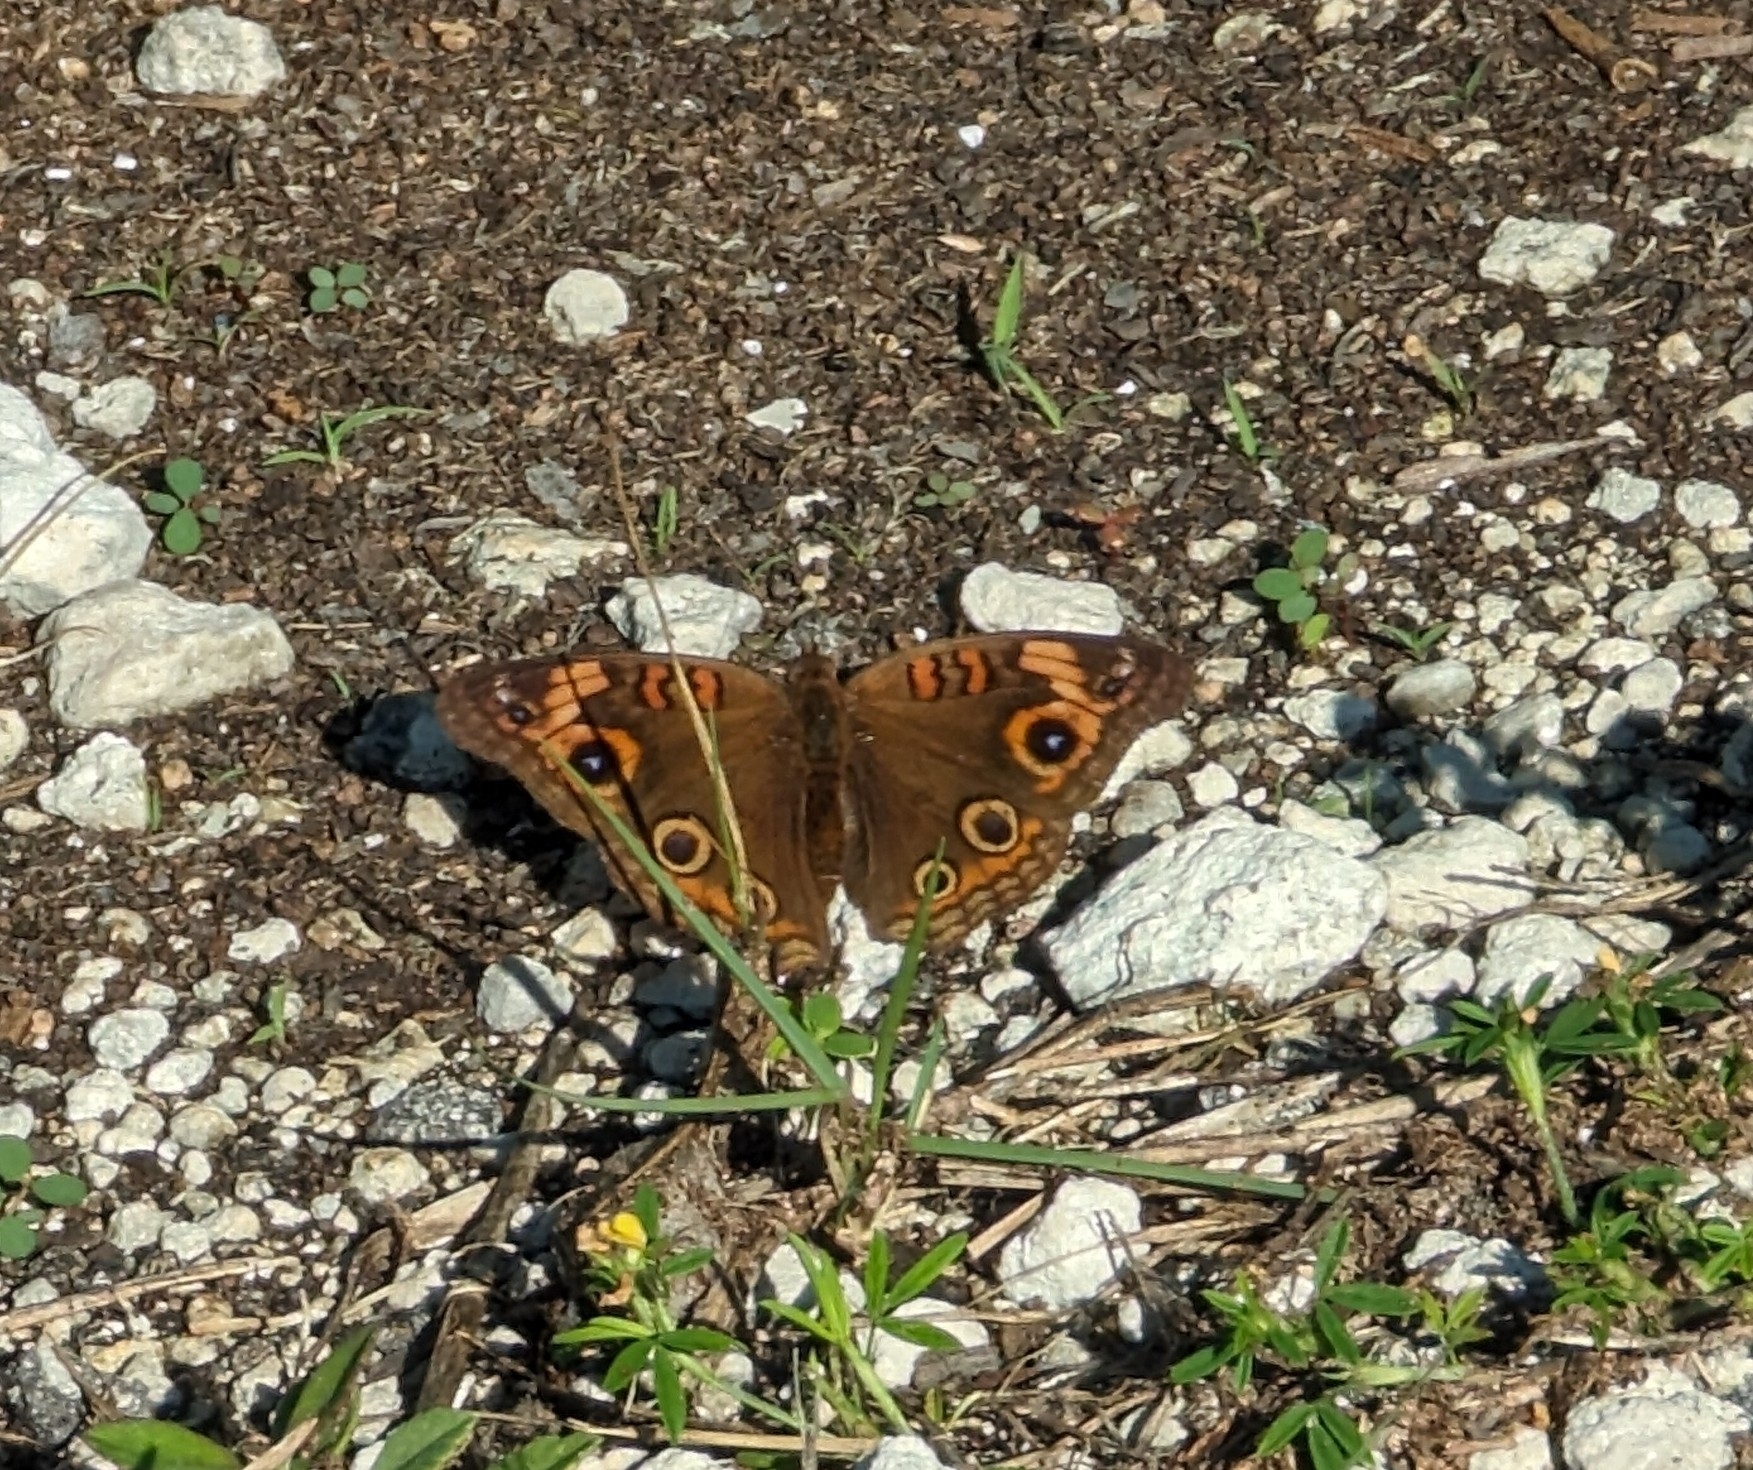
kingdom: Animalia
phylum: Arthropoda
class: Insecta
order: Lepidoptera
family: Nymphalidae
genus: Junonia
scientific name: Junonia neildi
